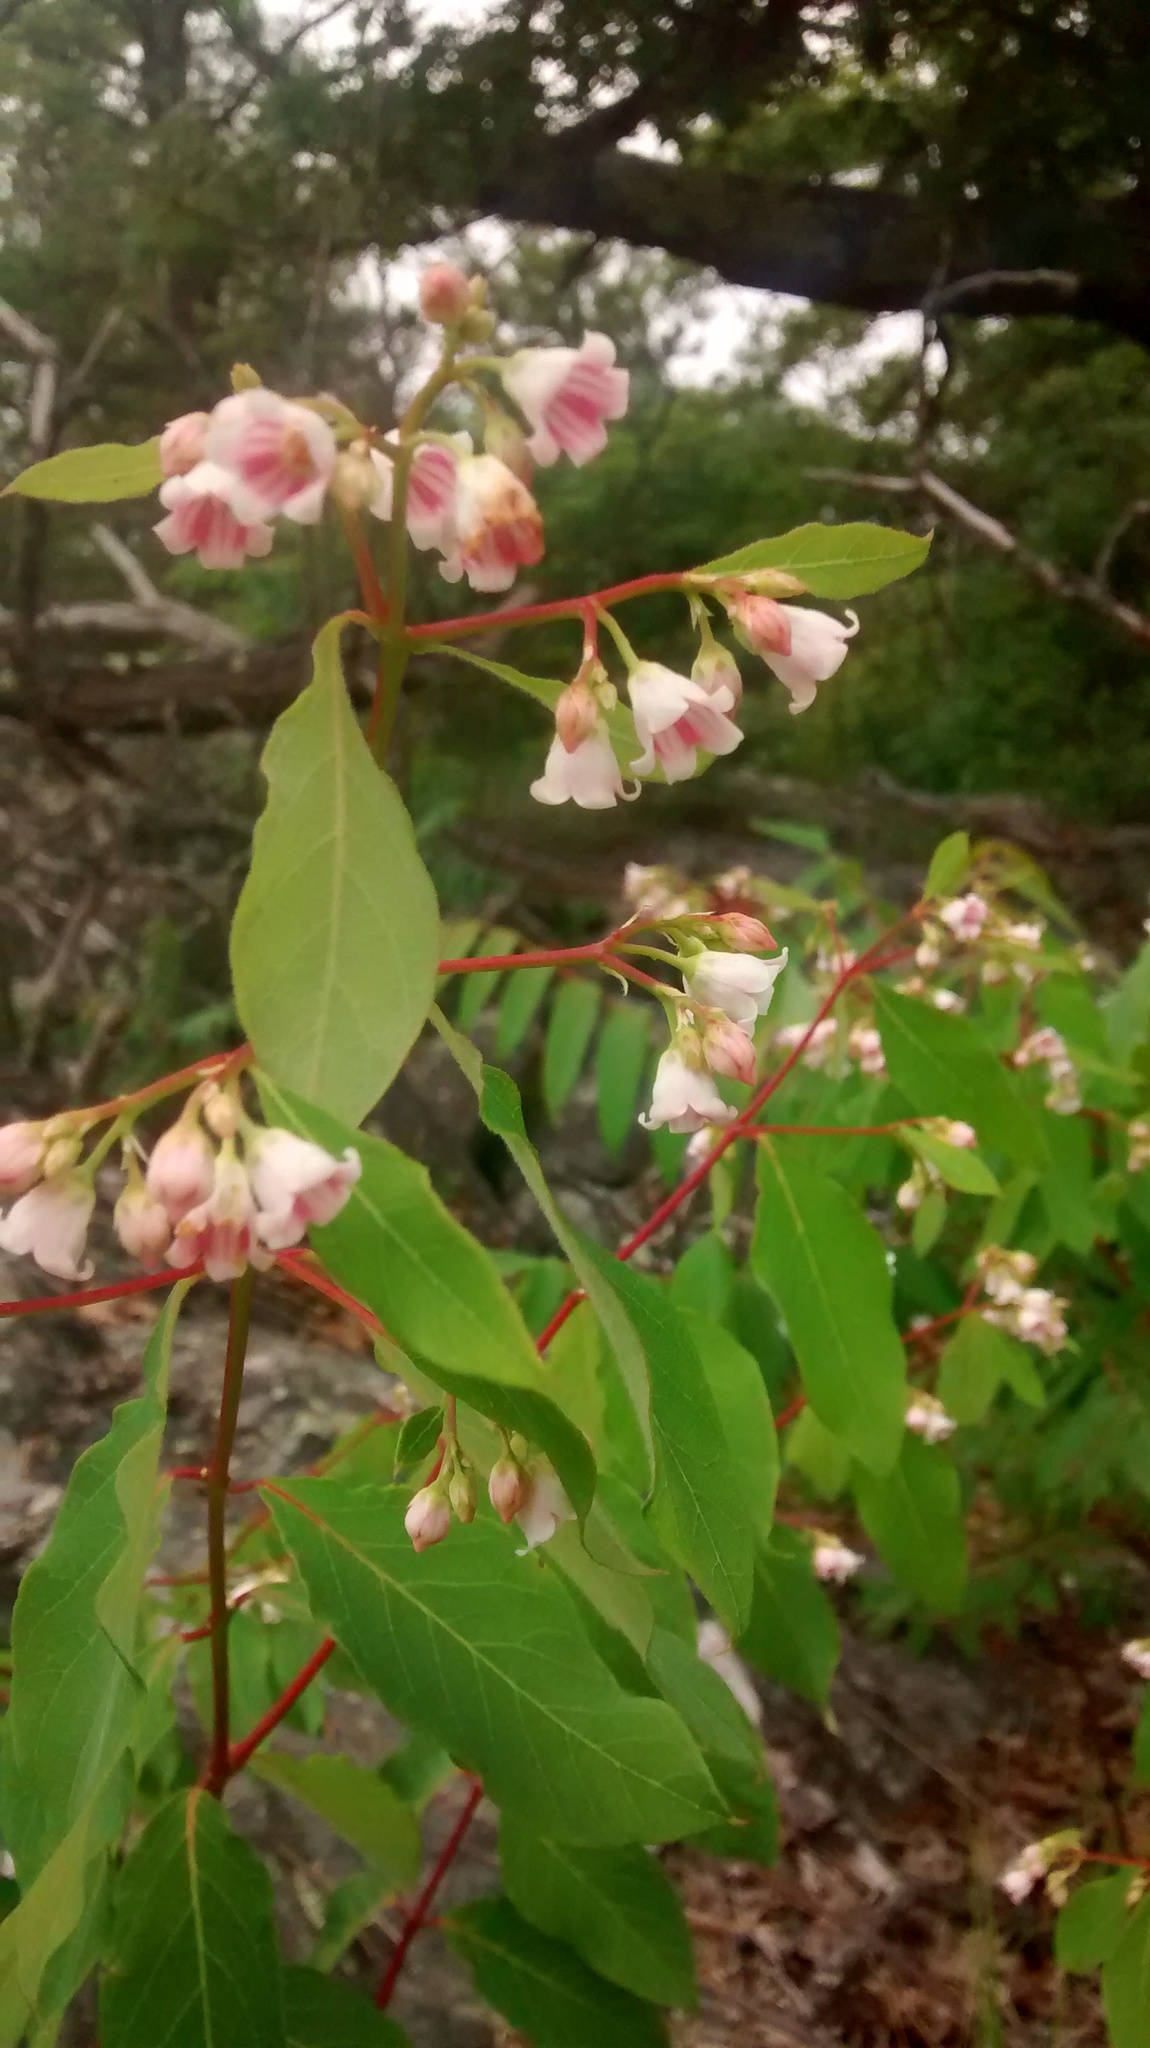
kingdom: Plantae
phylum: Tracheophyta
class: Magnoliopsida
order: Gentianales
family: Apocynaceae
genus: Apocynum
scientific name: Apocynum androsaemifolium
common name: Spreading dogbane
